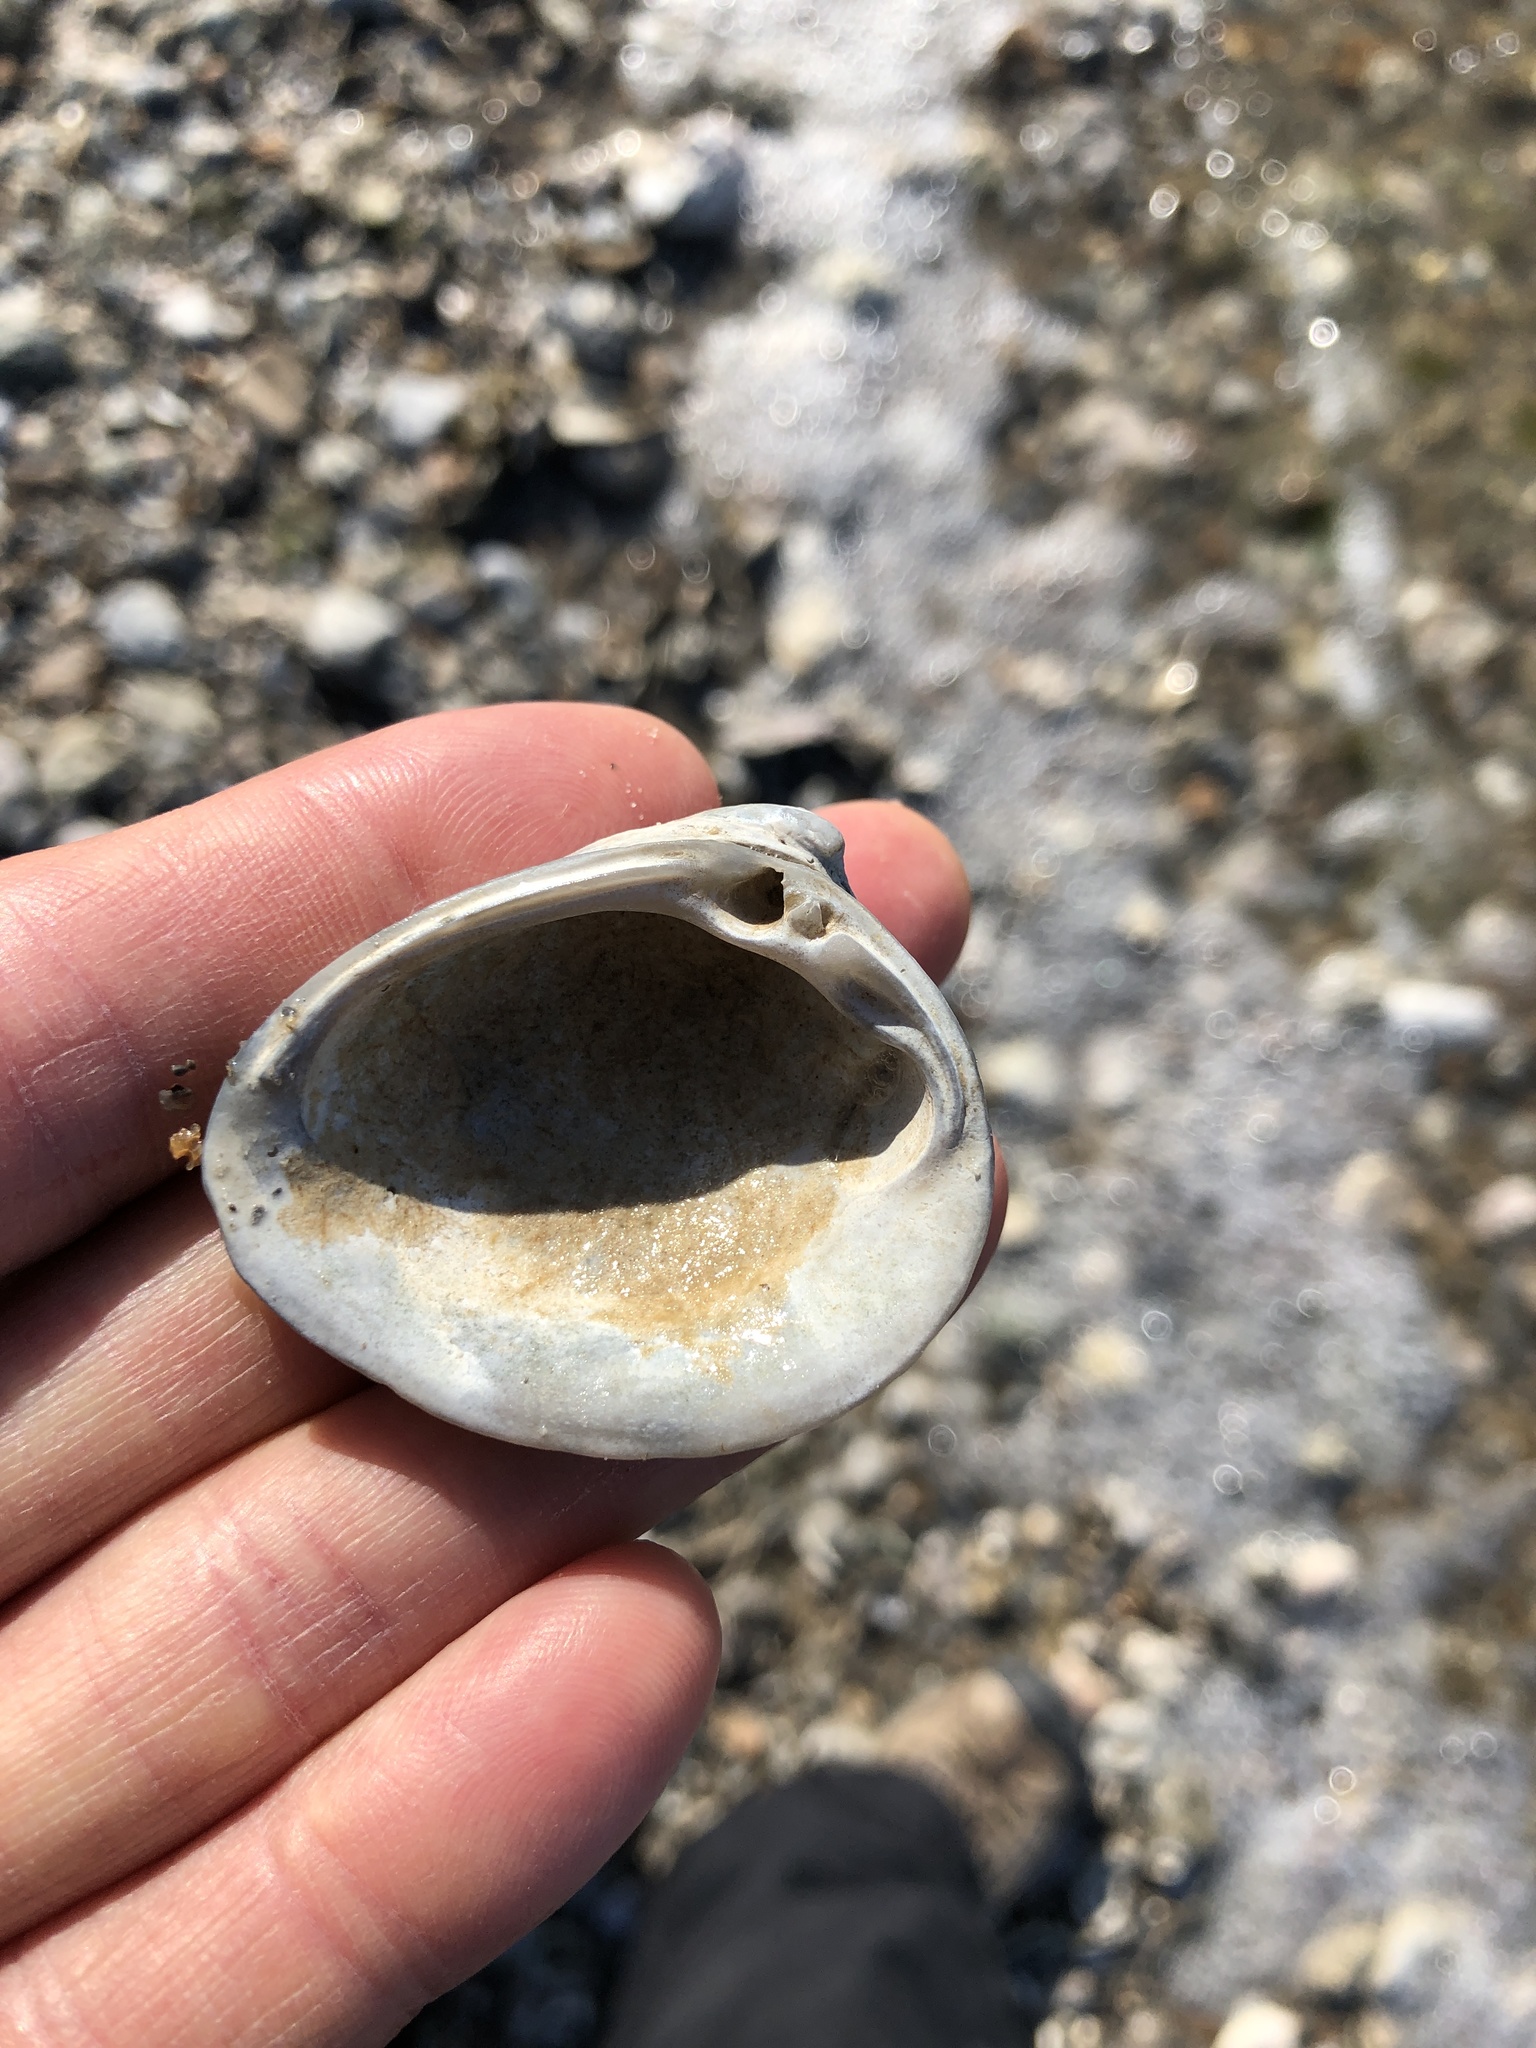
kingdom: Animalia
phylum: Mollusca
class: Bivalvia
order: Venerida
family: Mactridae
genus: Rangia
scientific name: Rangia cuneata
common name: Atlantic rangia
